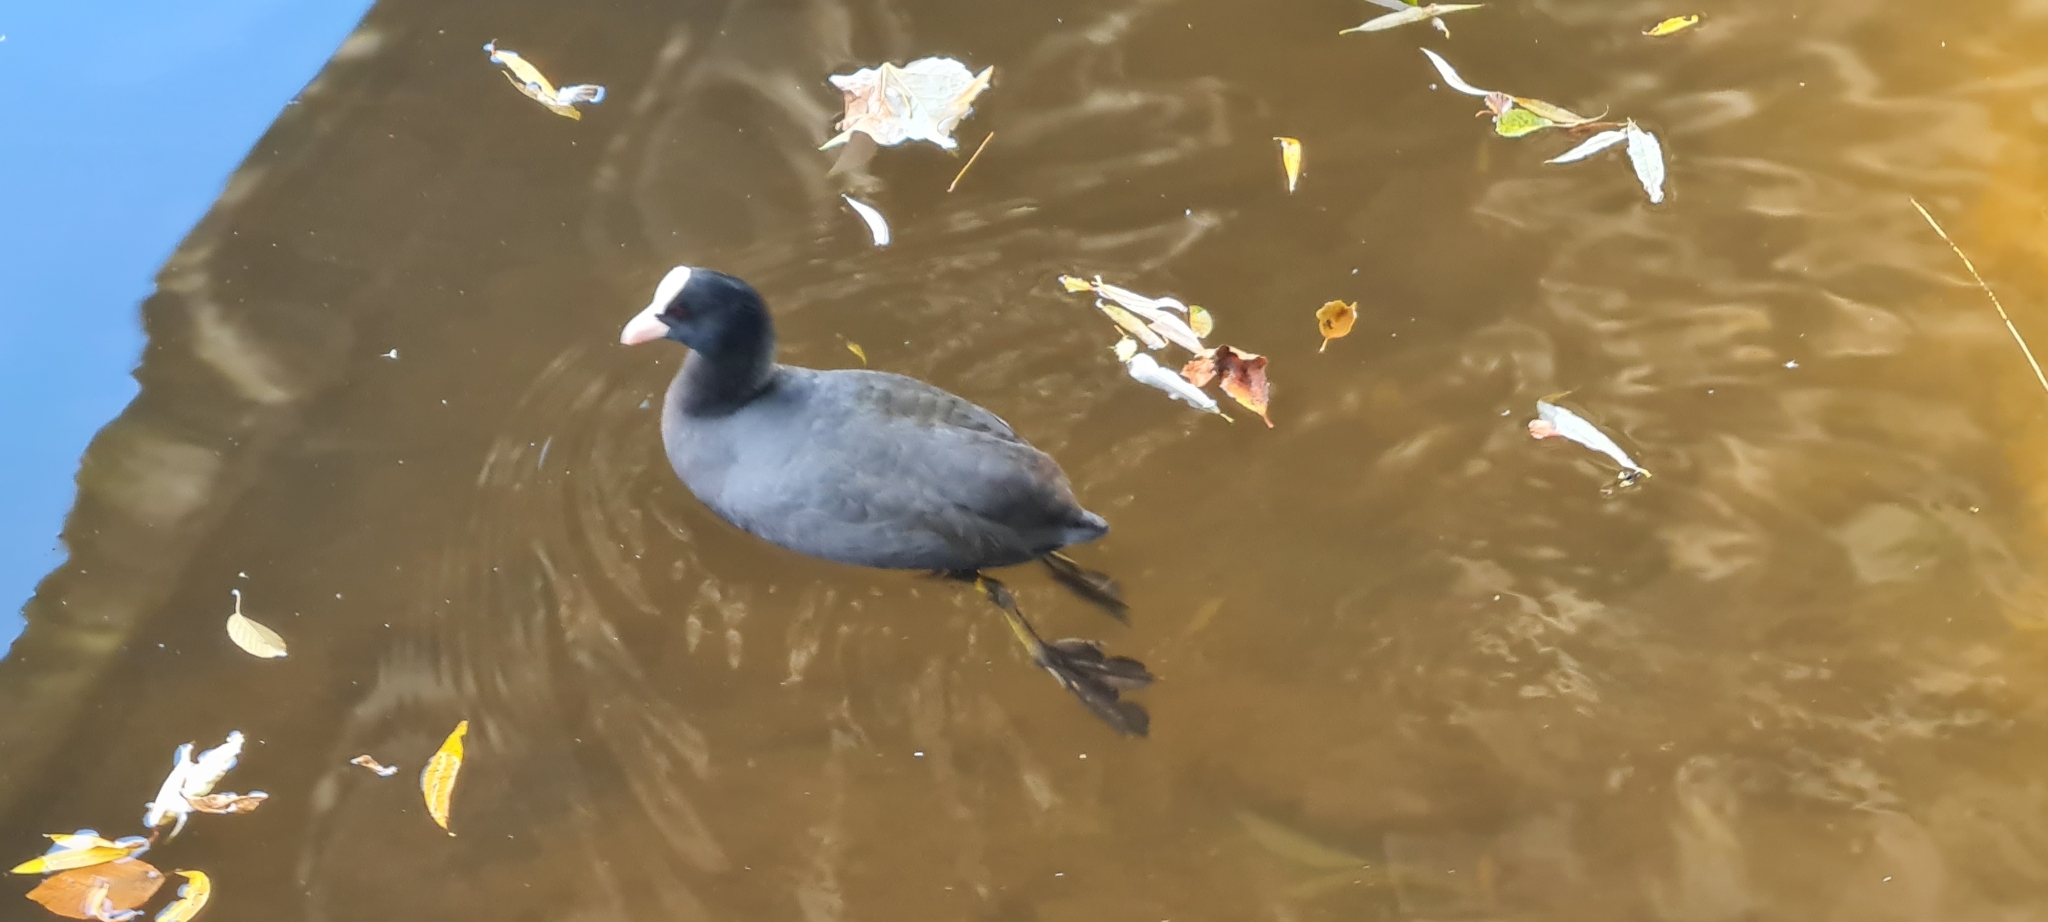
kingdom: Animalia
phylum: Chordata
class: Aves
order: Gruiformes
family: Rallidae
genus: Fulica
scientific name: Fulica atra
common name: Eurasian coot
